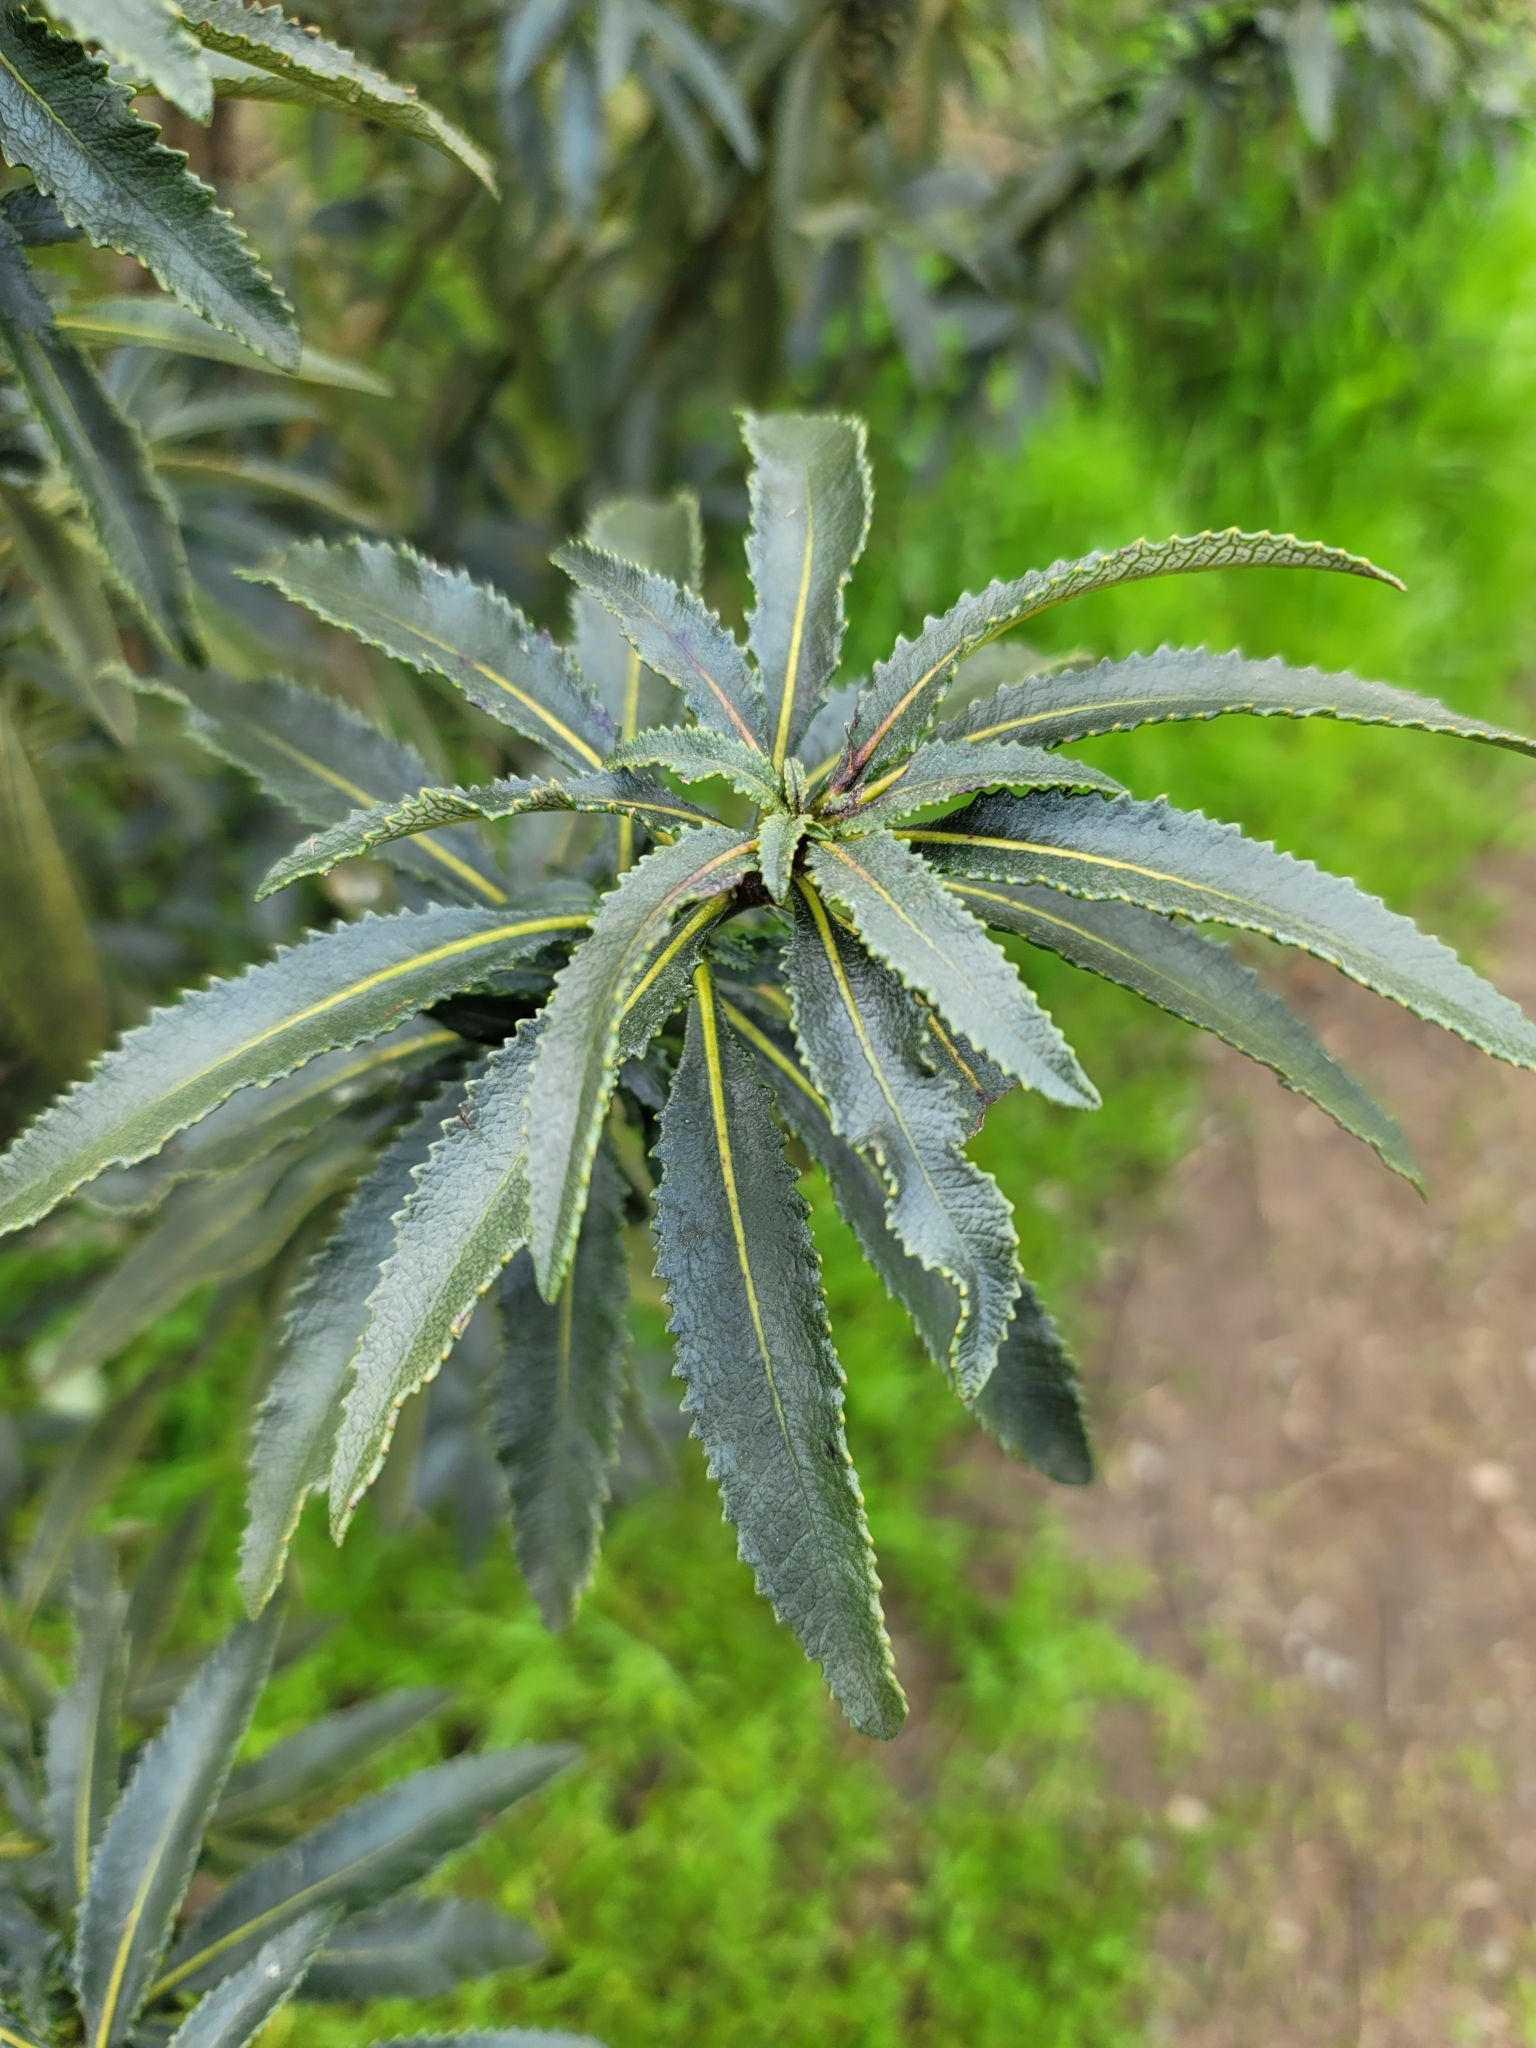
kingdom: Plantae
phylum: Tracheophyta
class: Magnoliopsida
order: Boraginales
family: Namaceae
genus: Eriodictyon
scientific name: Eriodictyon californicum
